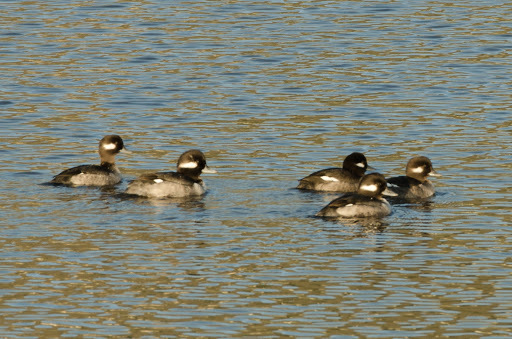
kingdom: Animalia
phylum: Chordata
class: Aves
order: Anseriformes
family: Anatidae
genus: Bucephala
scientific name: Bucephala albeola
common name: Bufflehead
